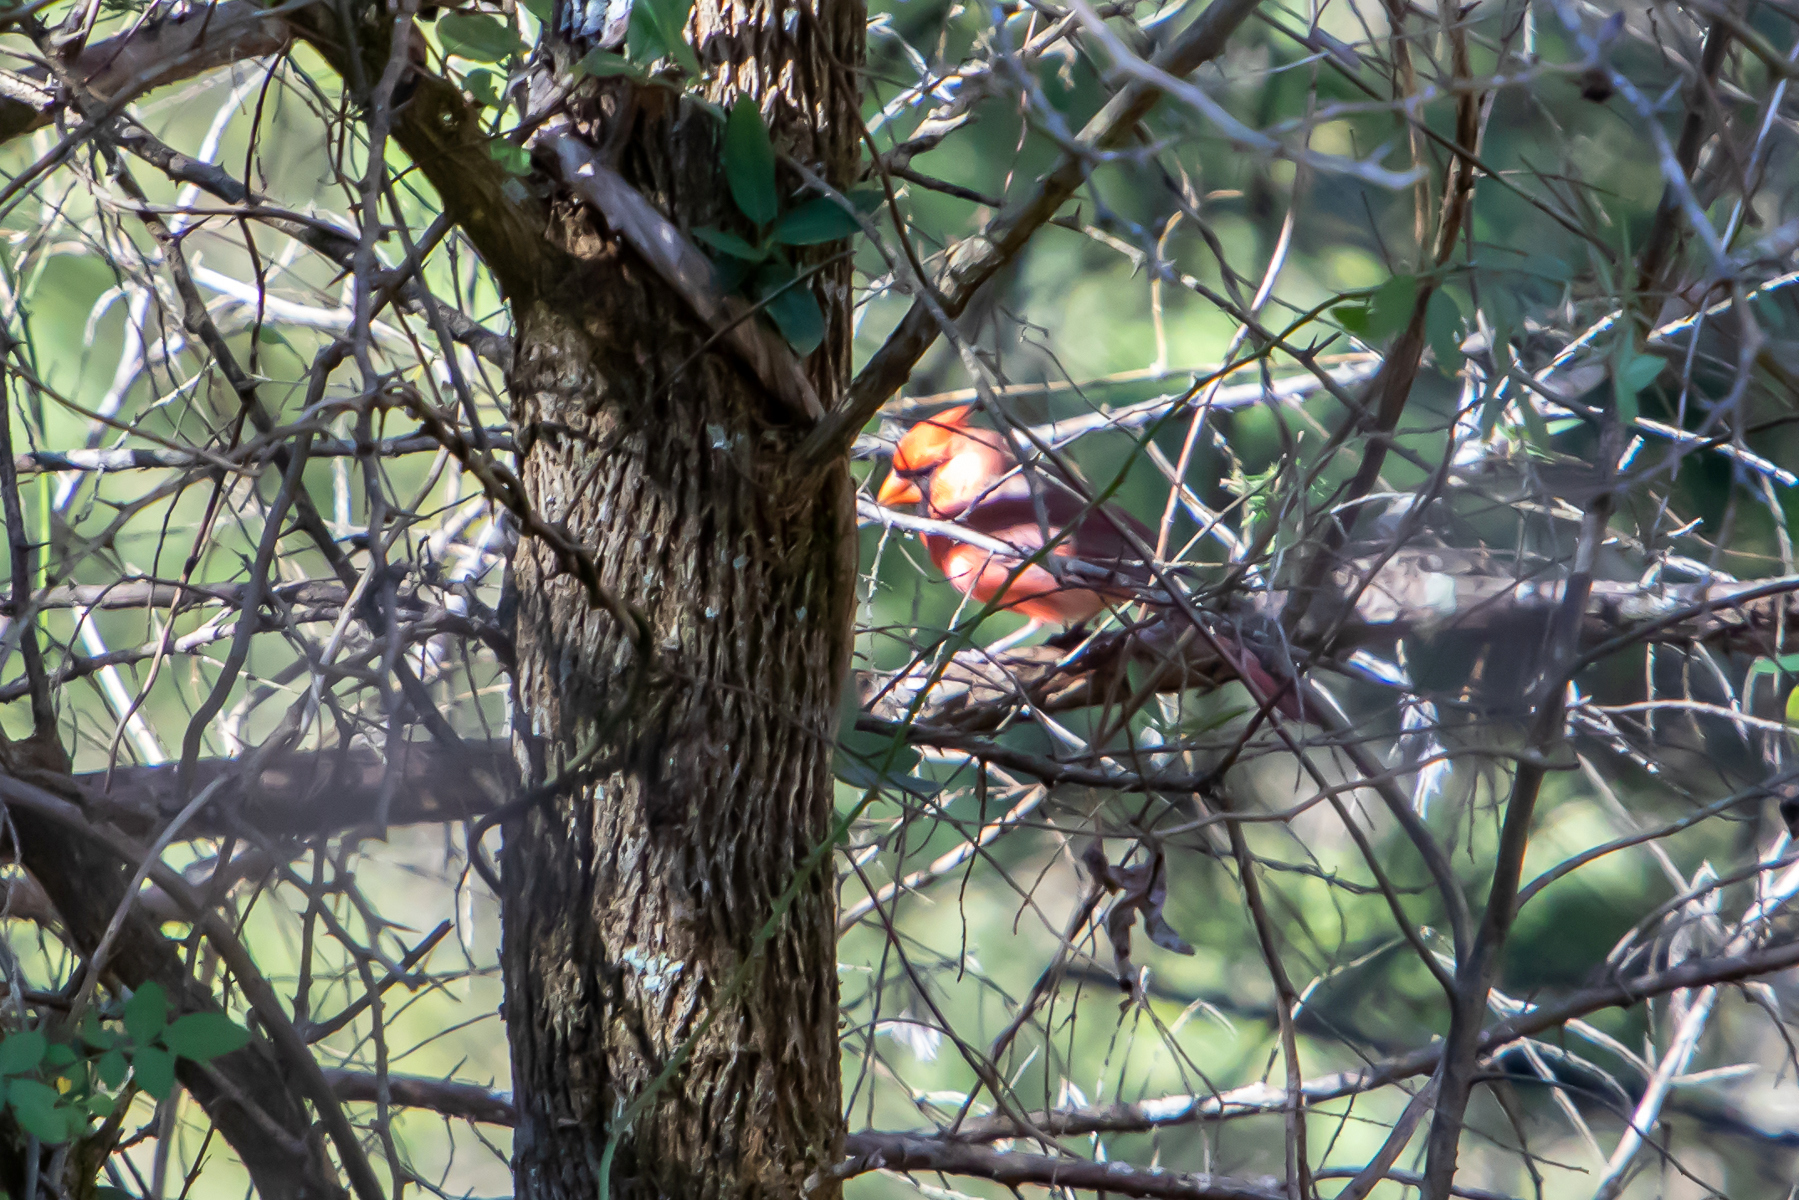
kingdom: Animalia
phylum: Chordata
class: Aves
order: Passeriformes
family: Cardinalidae
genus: Cardinalis
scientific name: Cardinalis cardinalis
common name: Northern cardinal
